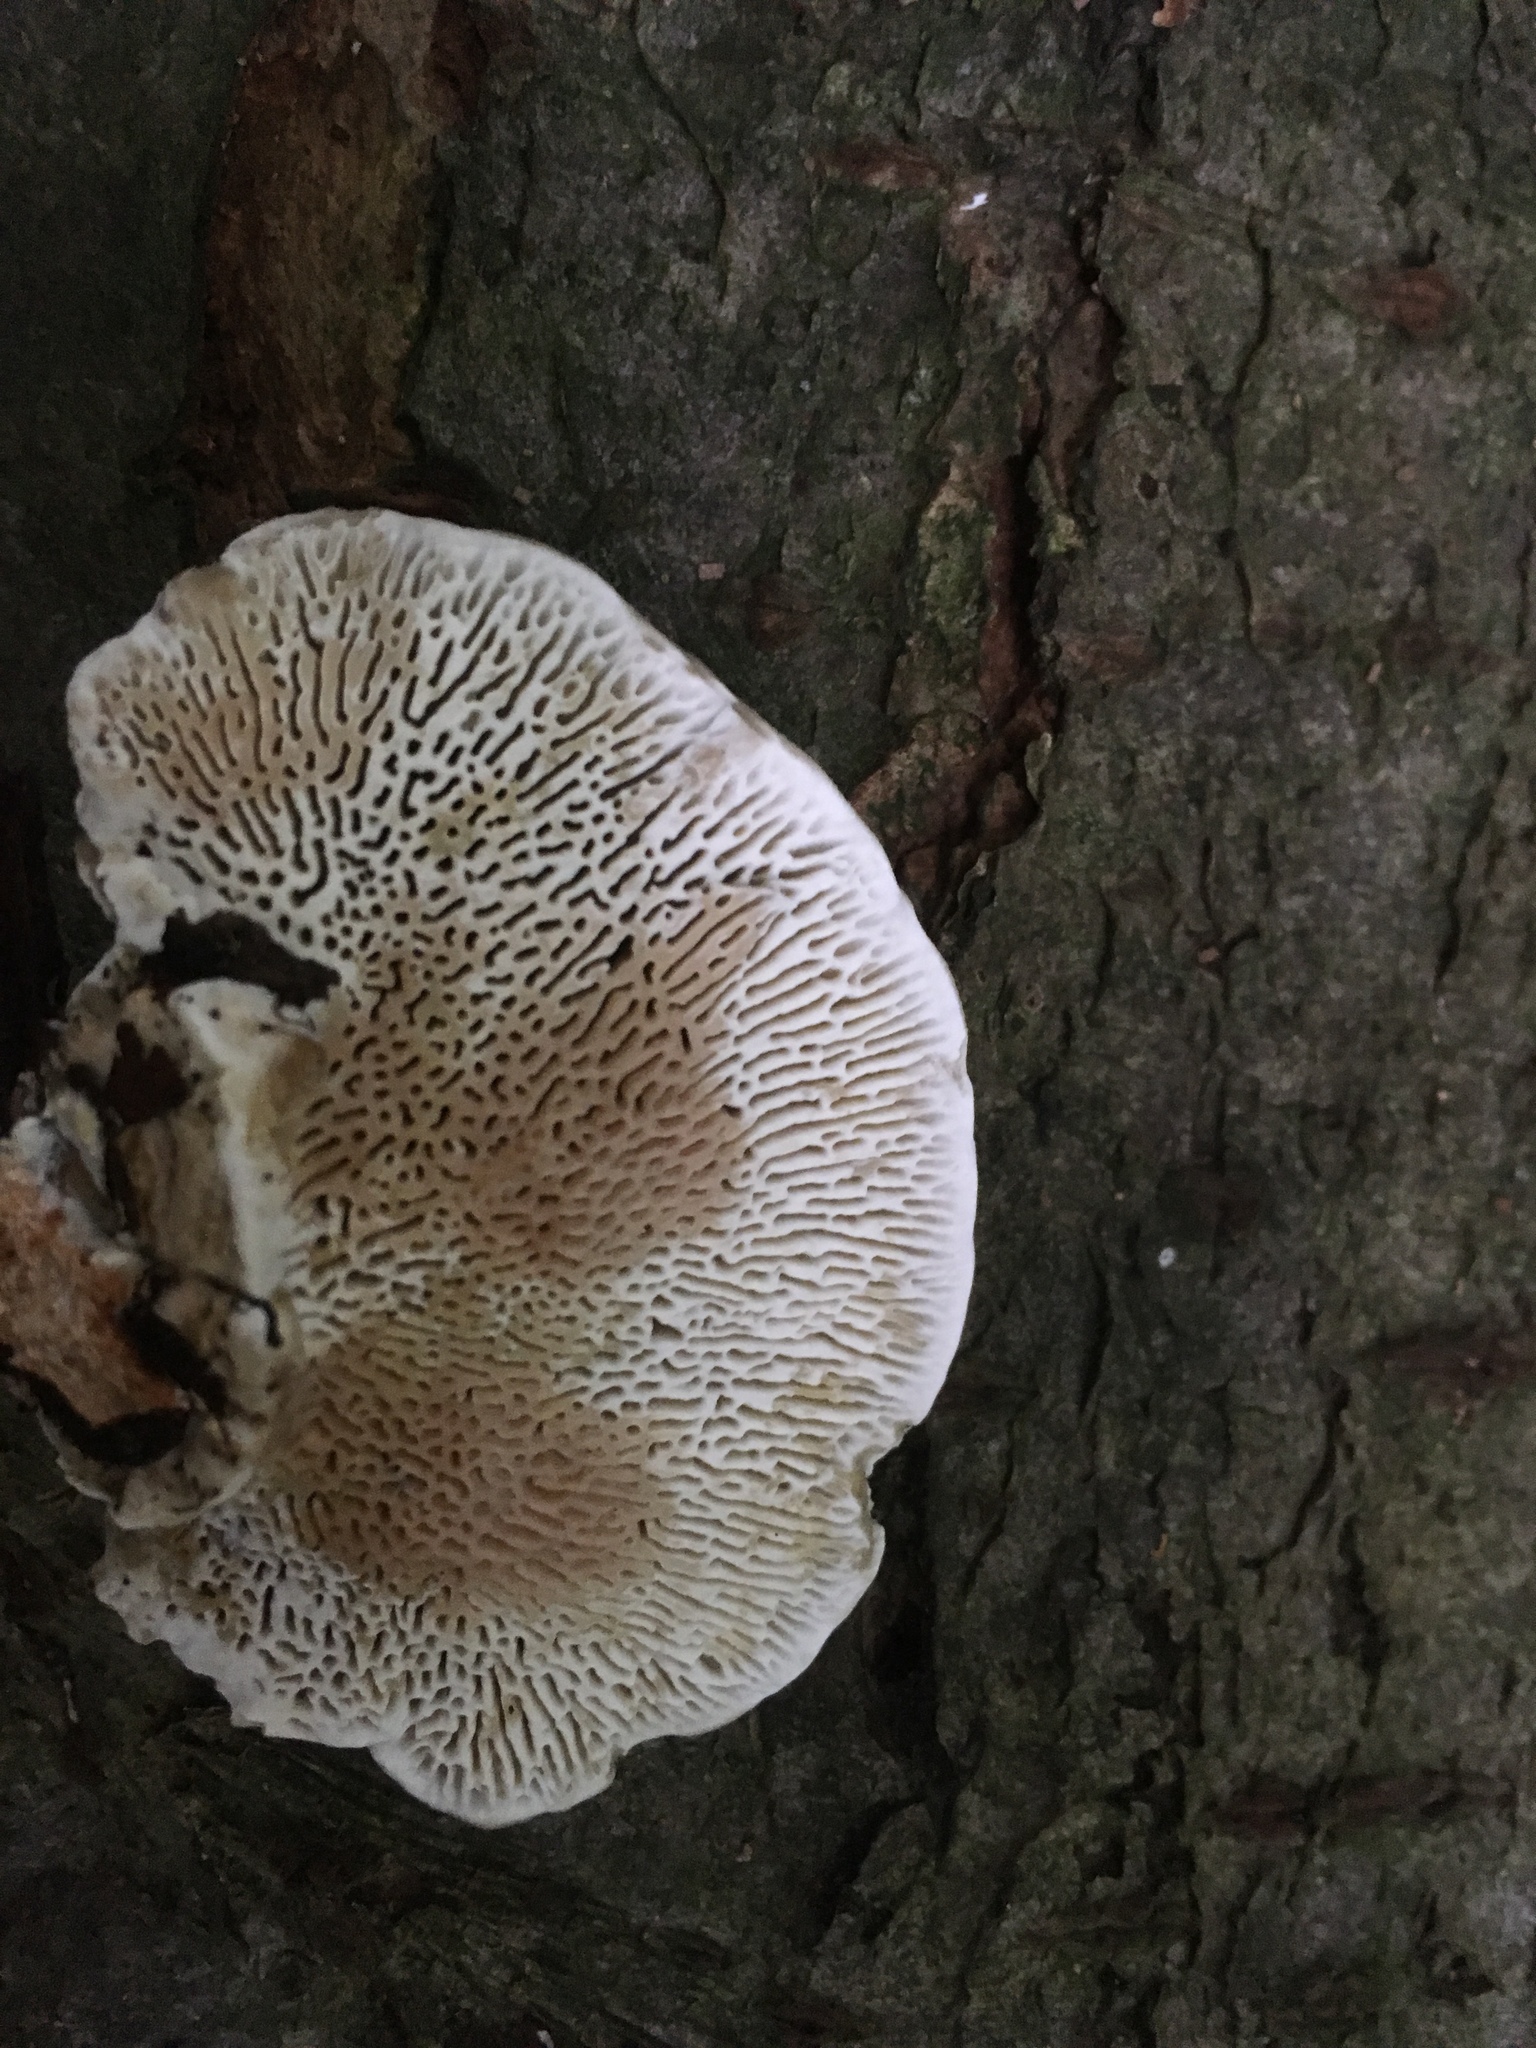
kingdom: Fungi
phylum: Basidiomycota
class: Agaricomycetes
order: Polyporales
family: Polyporaceae
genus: Daedaleopsis
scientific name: Daedaleopsis confragosa
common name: Blushing bracket
